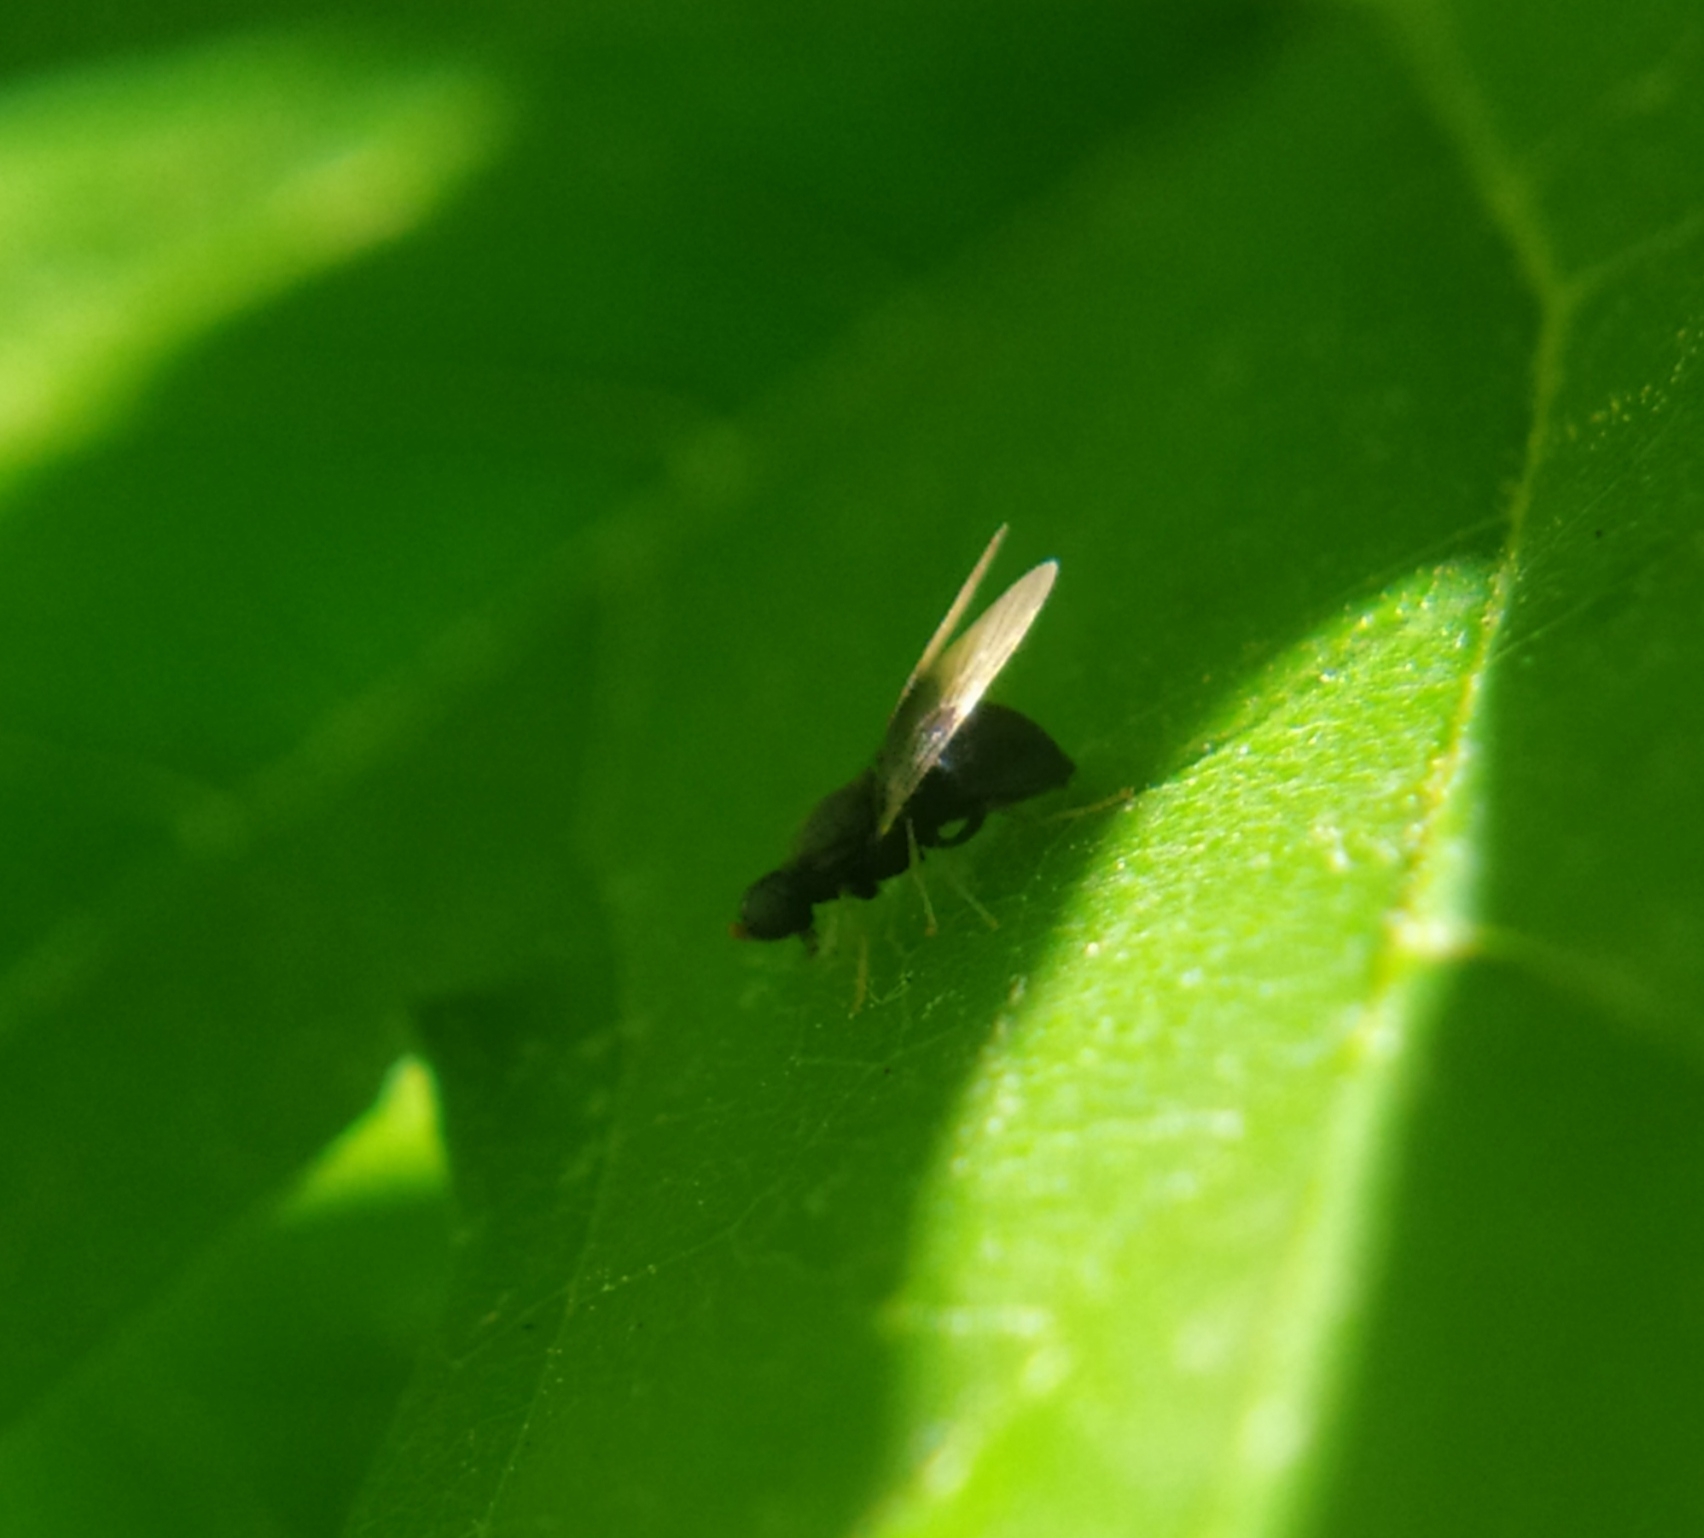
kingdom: Animalia
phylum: Arthropoda
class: Insecta
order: Diptera
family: Stratiomyidae
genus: Pachygaster
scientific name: Pachygaster atra
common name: Dark-winged black
